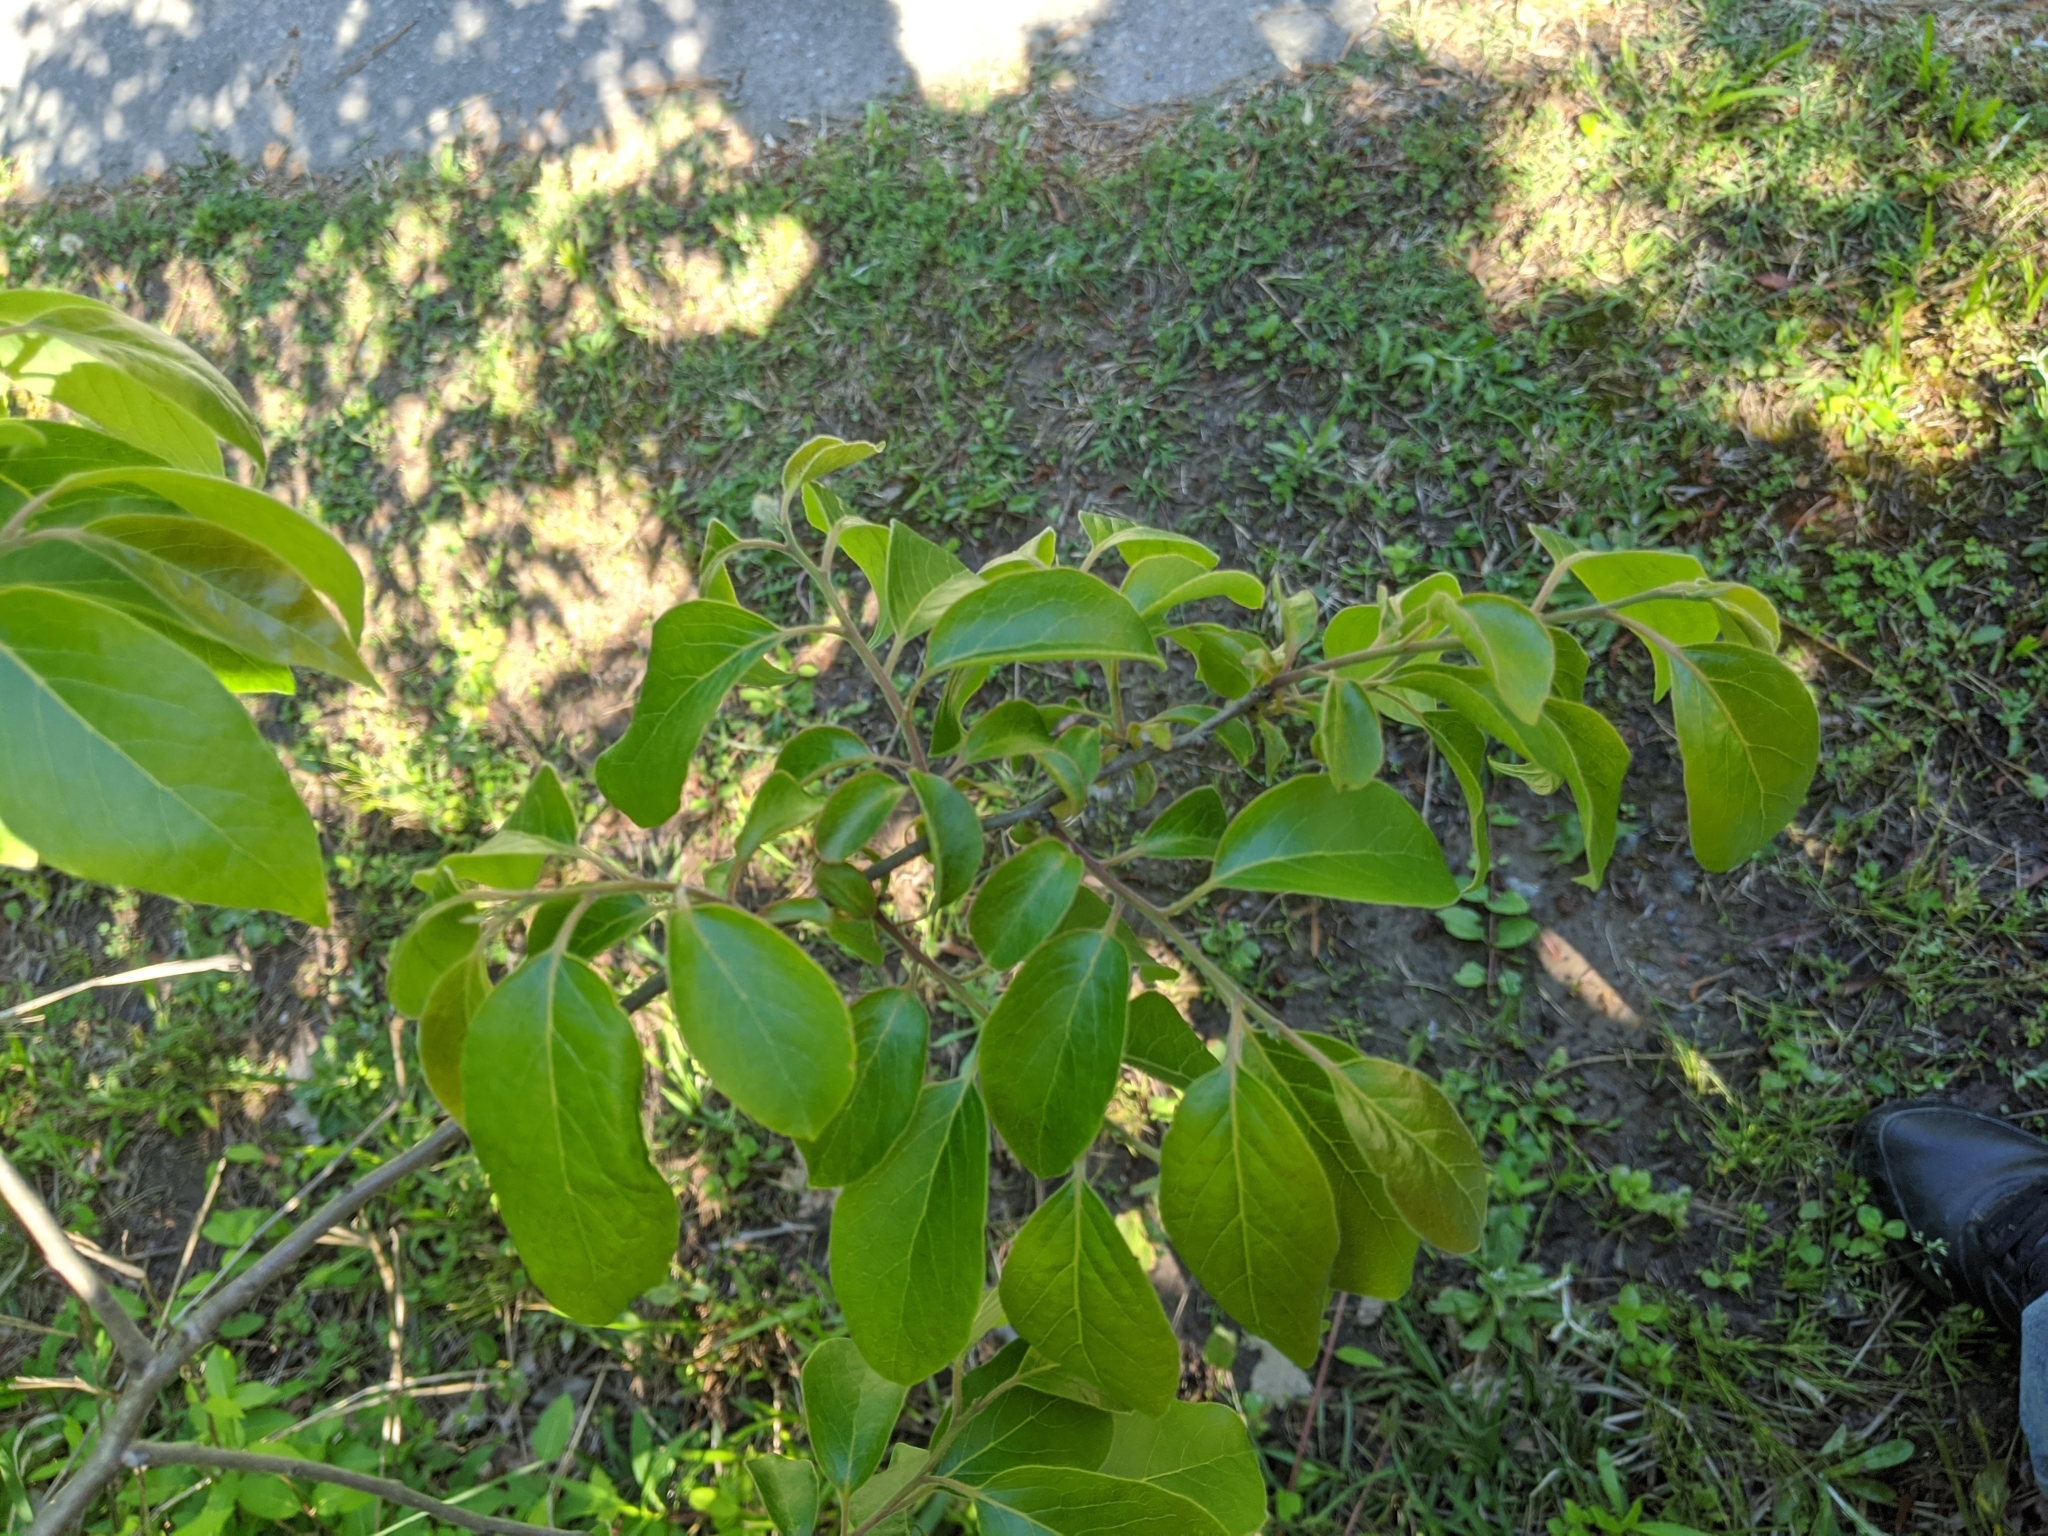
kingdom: Plantae
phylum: Tracheophyta
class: Magnoliopsida
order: Ericales
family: Ebenaceae
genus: Diospyros
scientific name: Diospyros virginiana
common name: Persimmon
